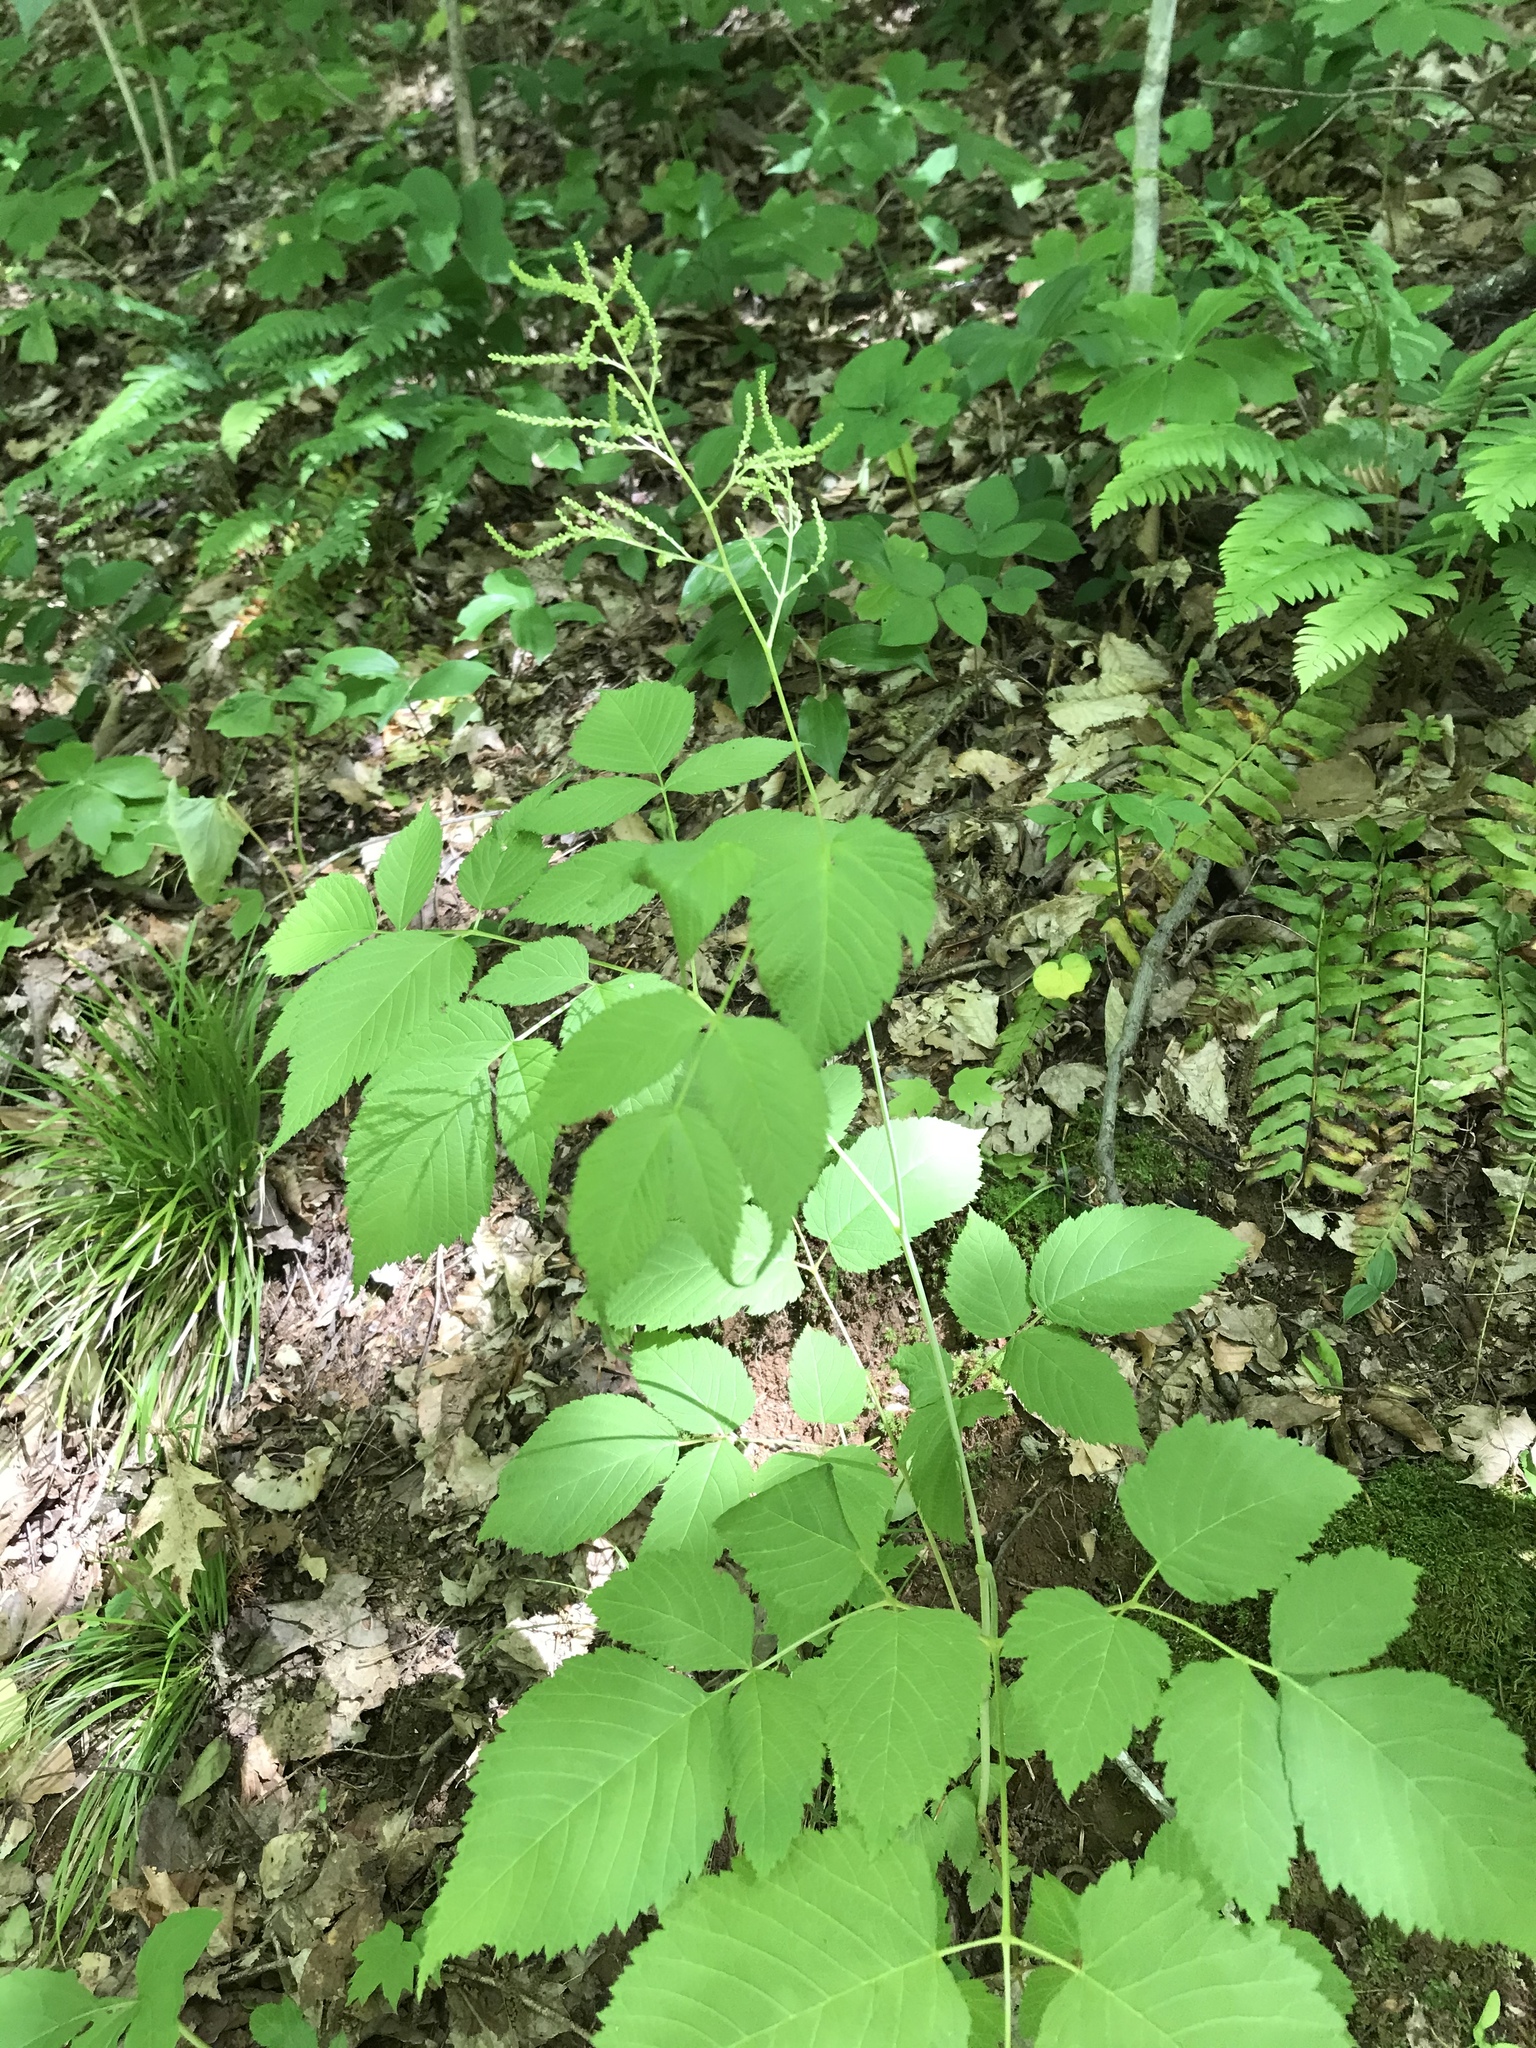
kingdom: Plantae
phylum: Tracheophyta
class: Magnoliopsida
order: Rosales
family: Rosaceae
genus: Aruncus
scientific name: Aruncus dioicus
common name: Buck's-beard
